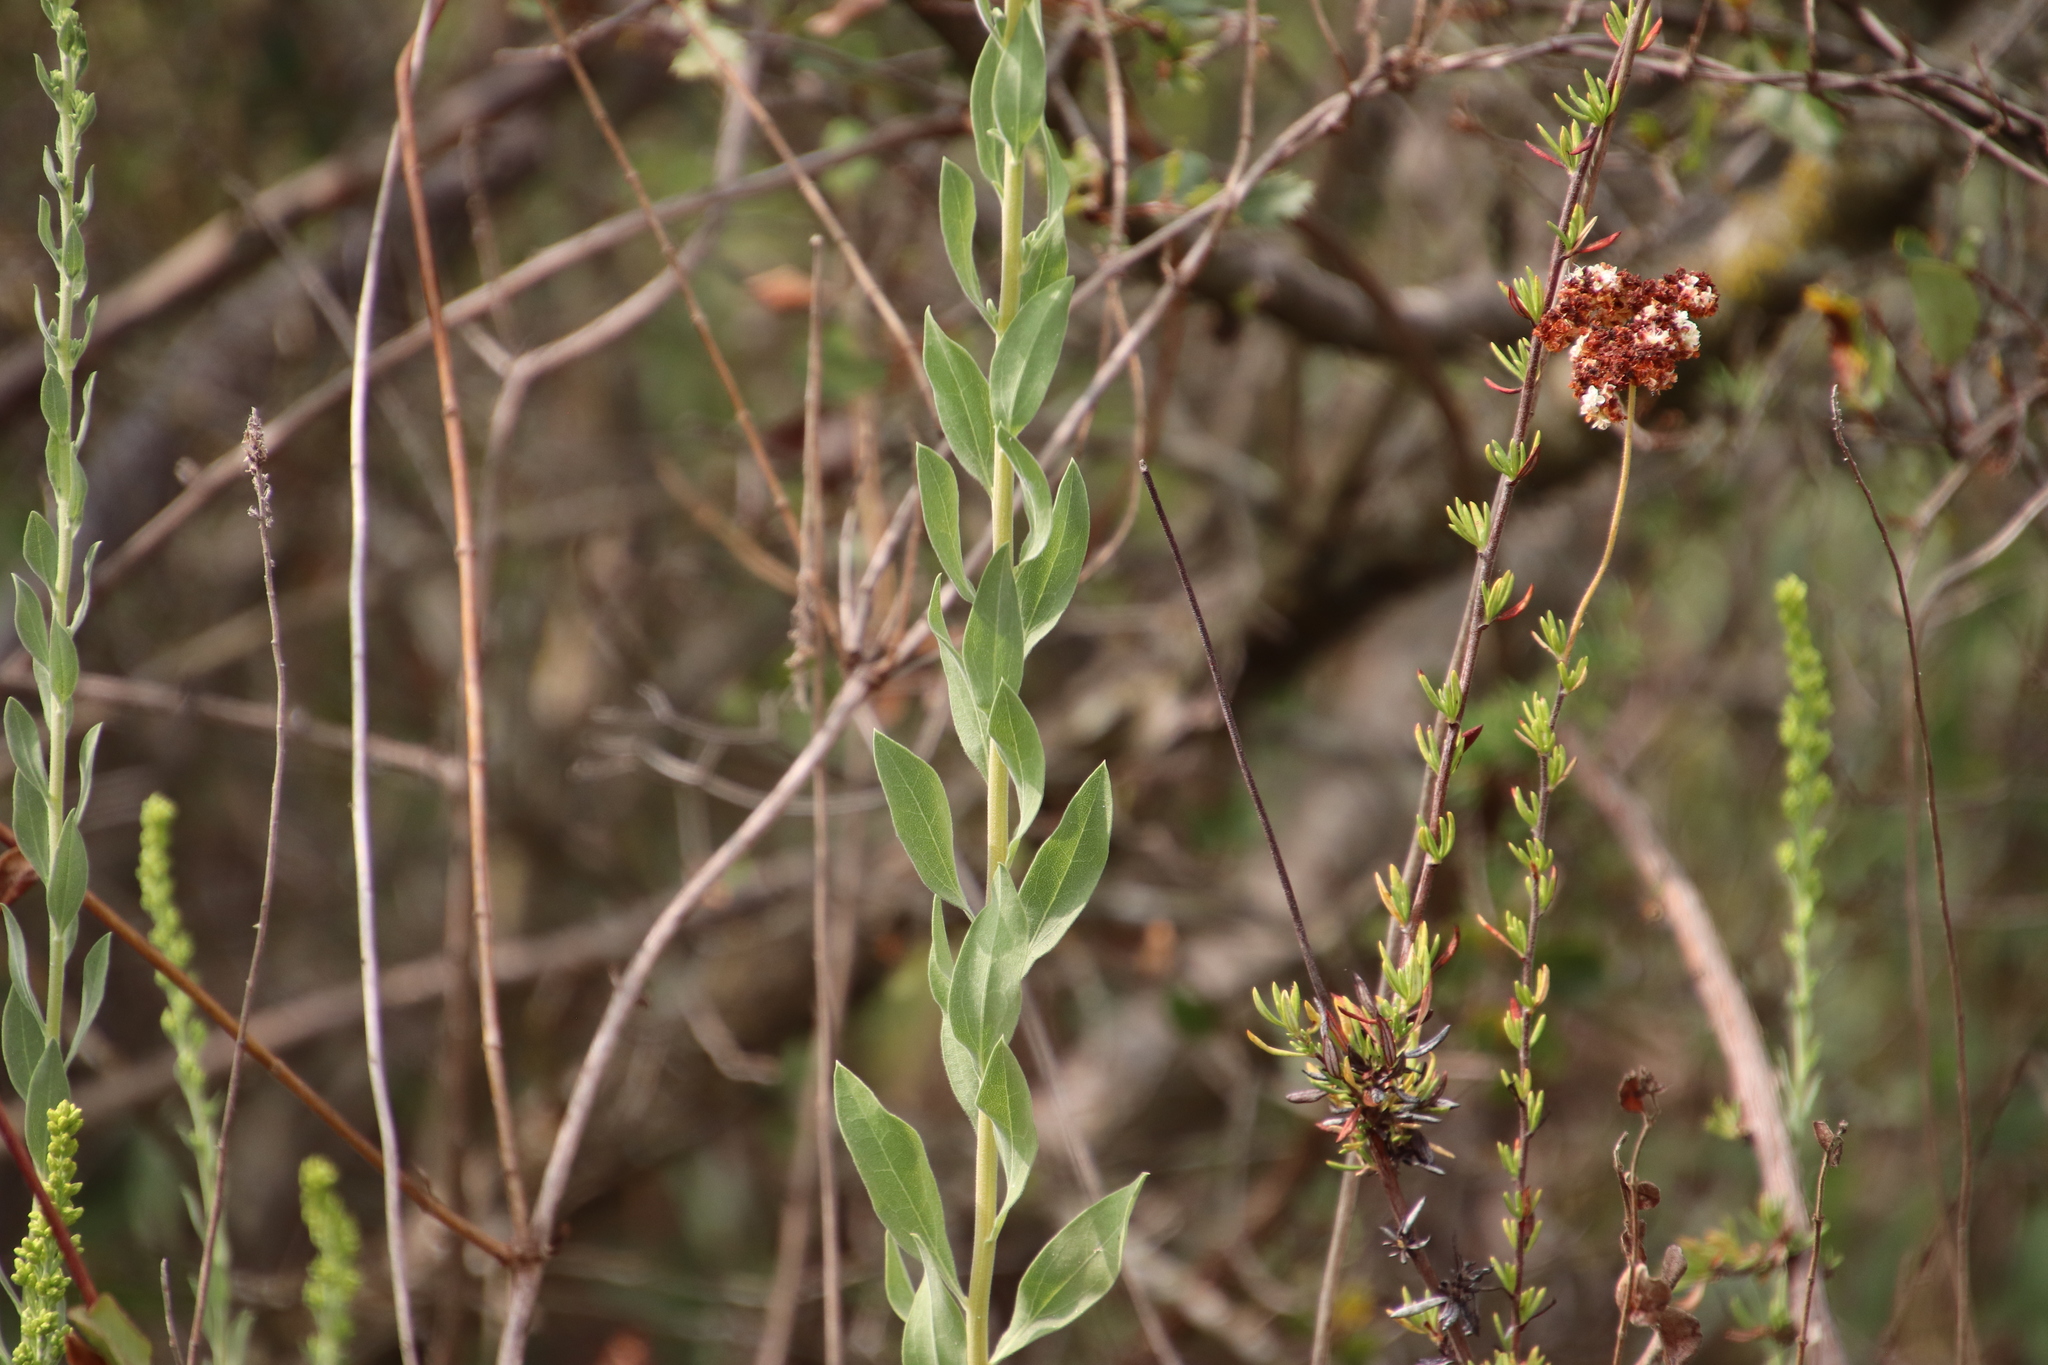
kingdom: Plantae
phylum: Tracheophyta
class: Magnoliopsida
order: Asterales
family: Asteraceae
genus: Solidago
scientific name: Solidago californica
